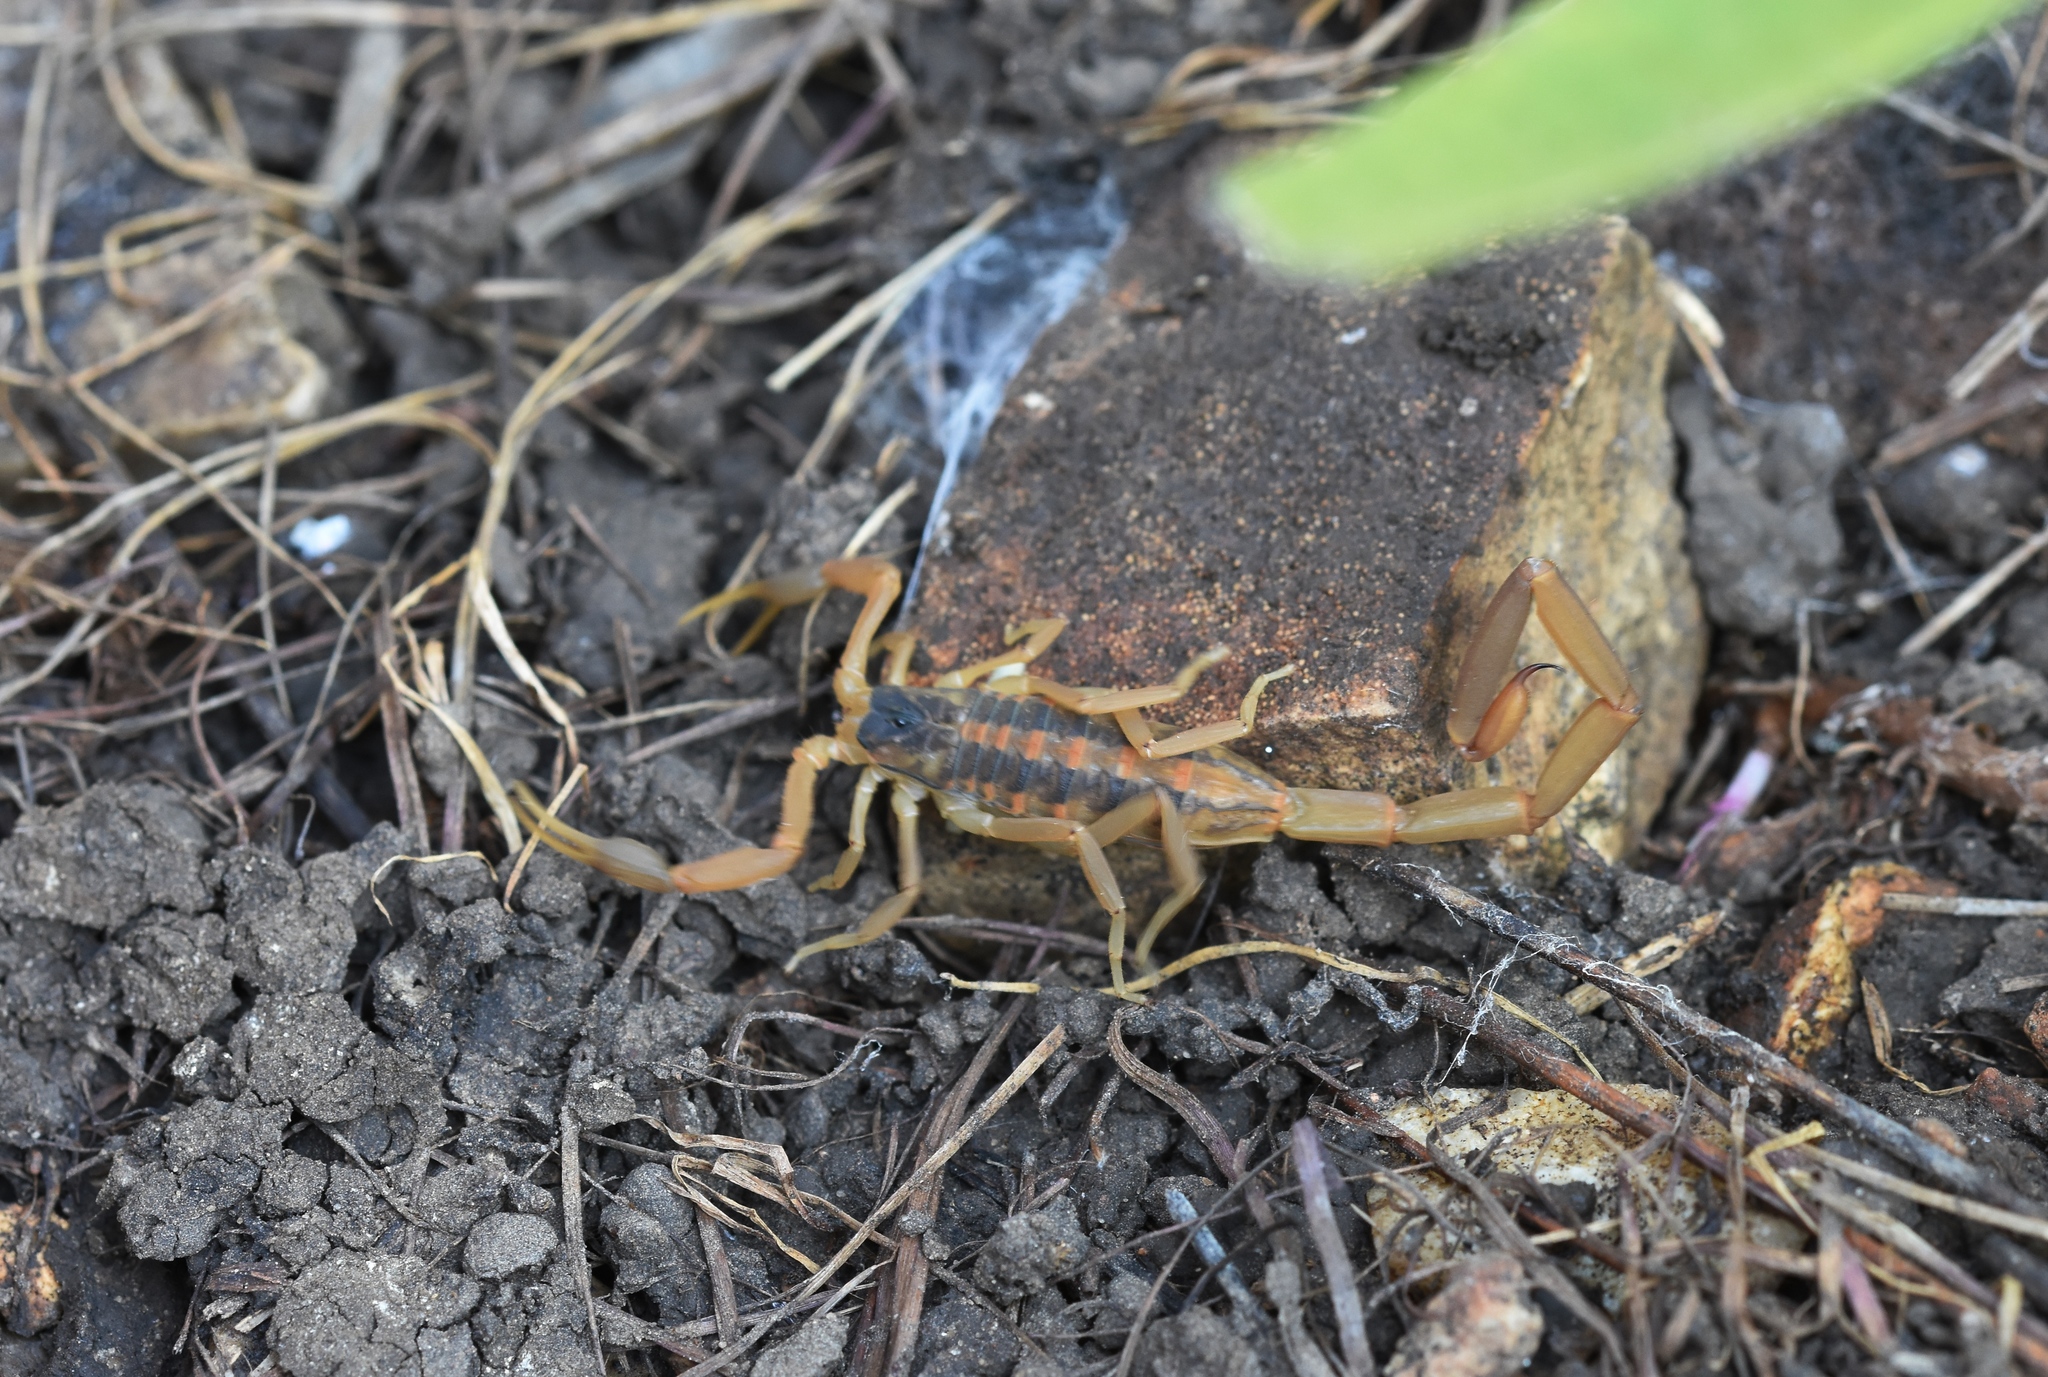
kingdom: Animalia
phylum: Arthropoda
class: Arachnida
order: Scorpiones
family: Buthidae
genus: Centruroides
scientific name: Centruroides vittatus
